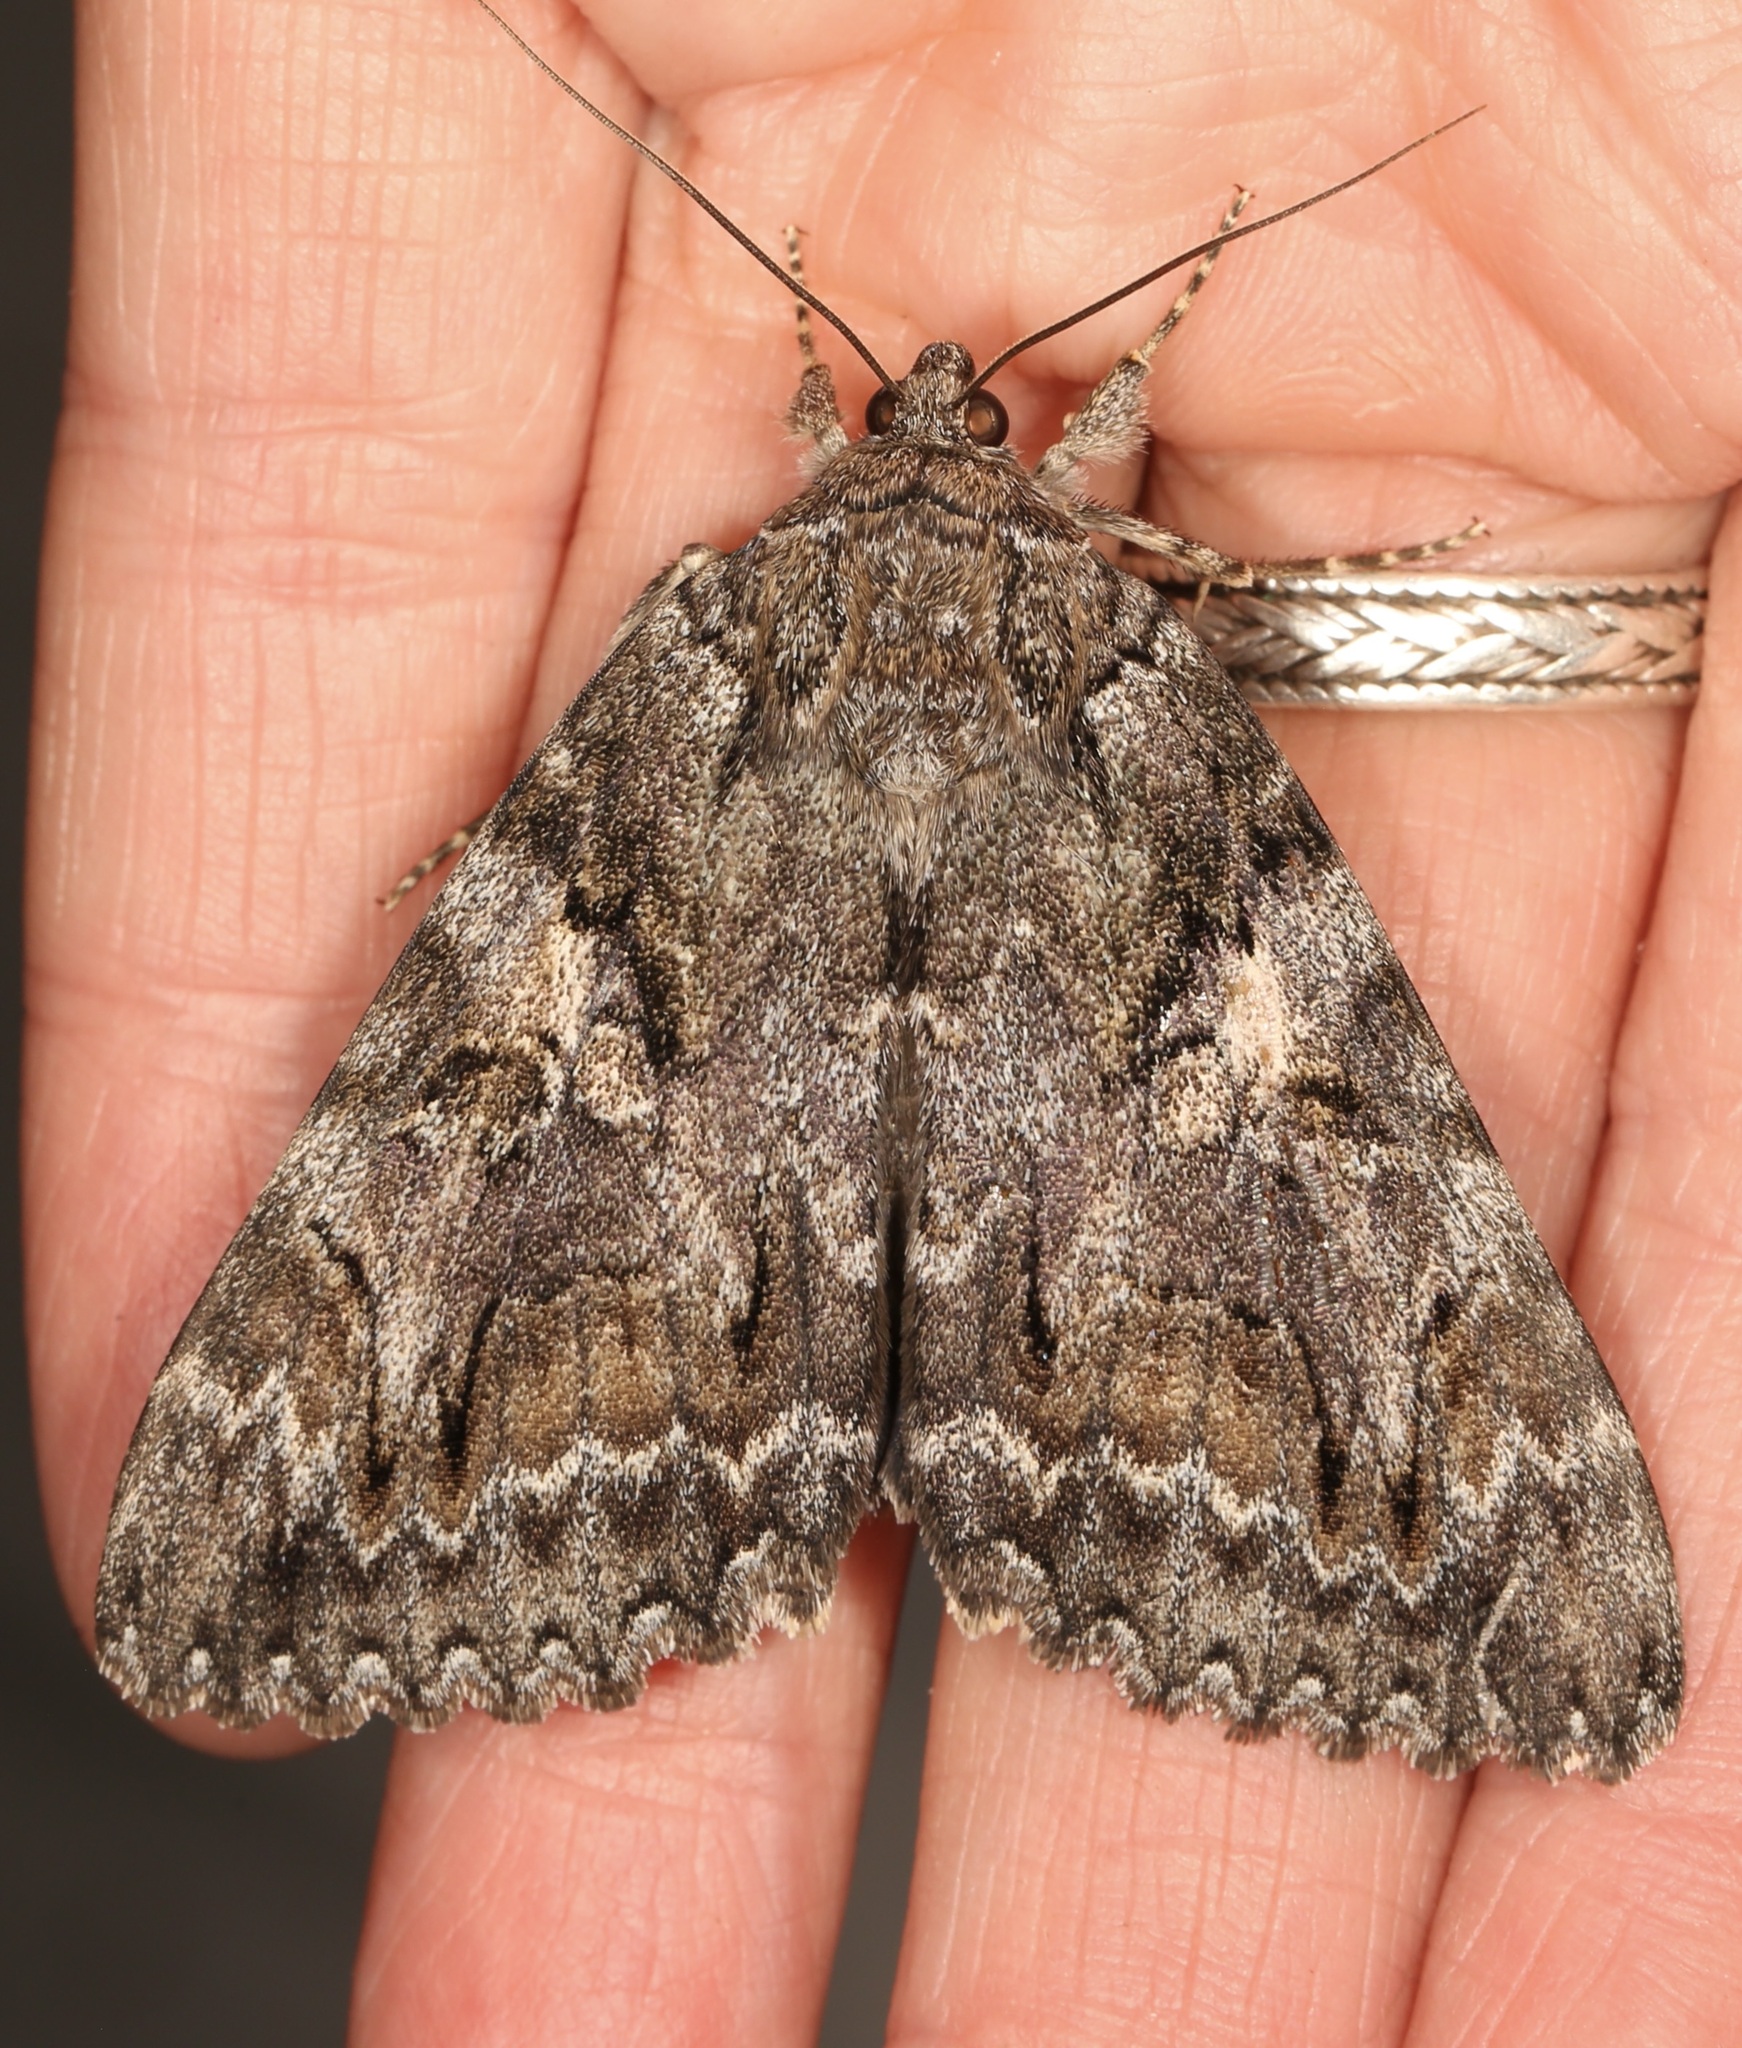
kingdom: Animalia
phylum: Arthropoda
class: Insecta
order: Lepidoptera
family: Erebidae
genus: Catocala
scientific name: Catocala aholibah
